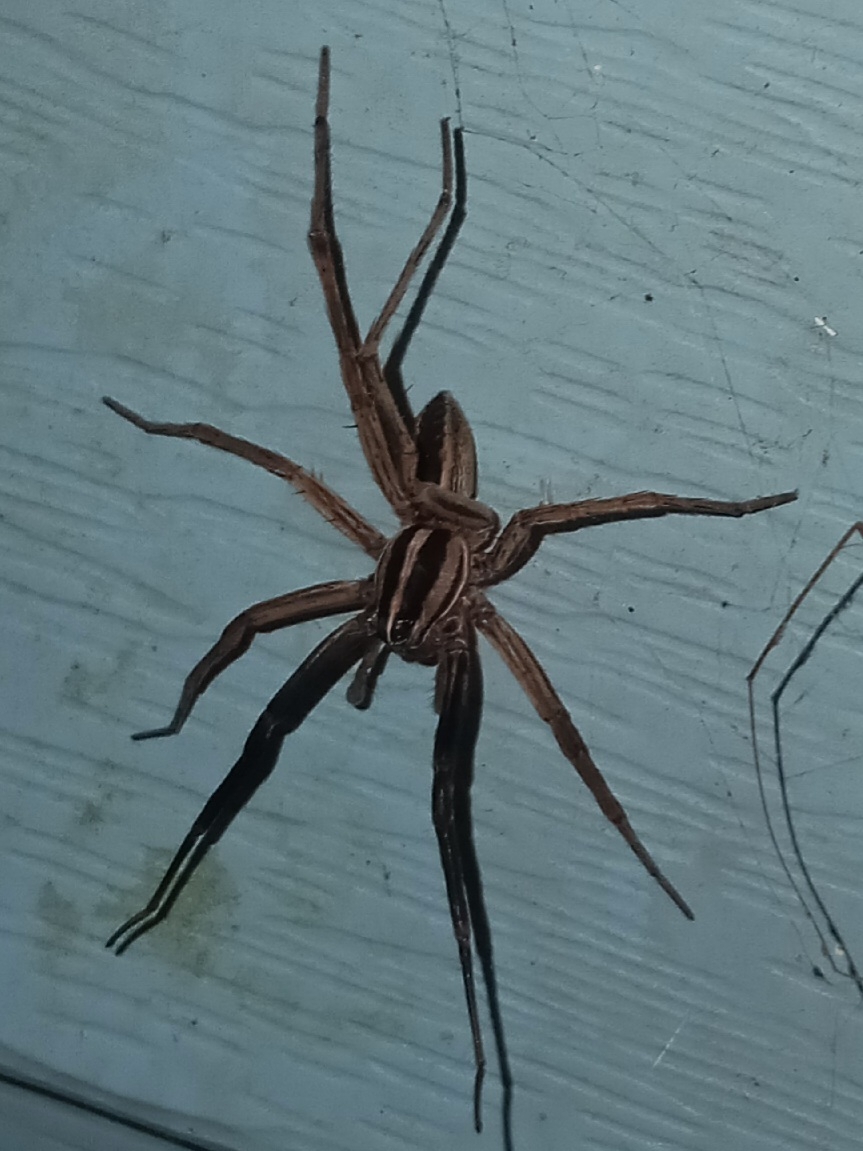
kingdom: Animalia
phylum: Arthropoda
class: Arachnida
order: Araneae
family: Lycosidae
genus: Rabidosa
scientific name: Rabidosa rabida
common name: Rabid wolf spider
